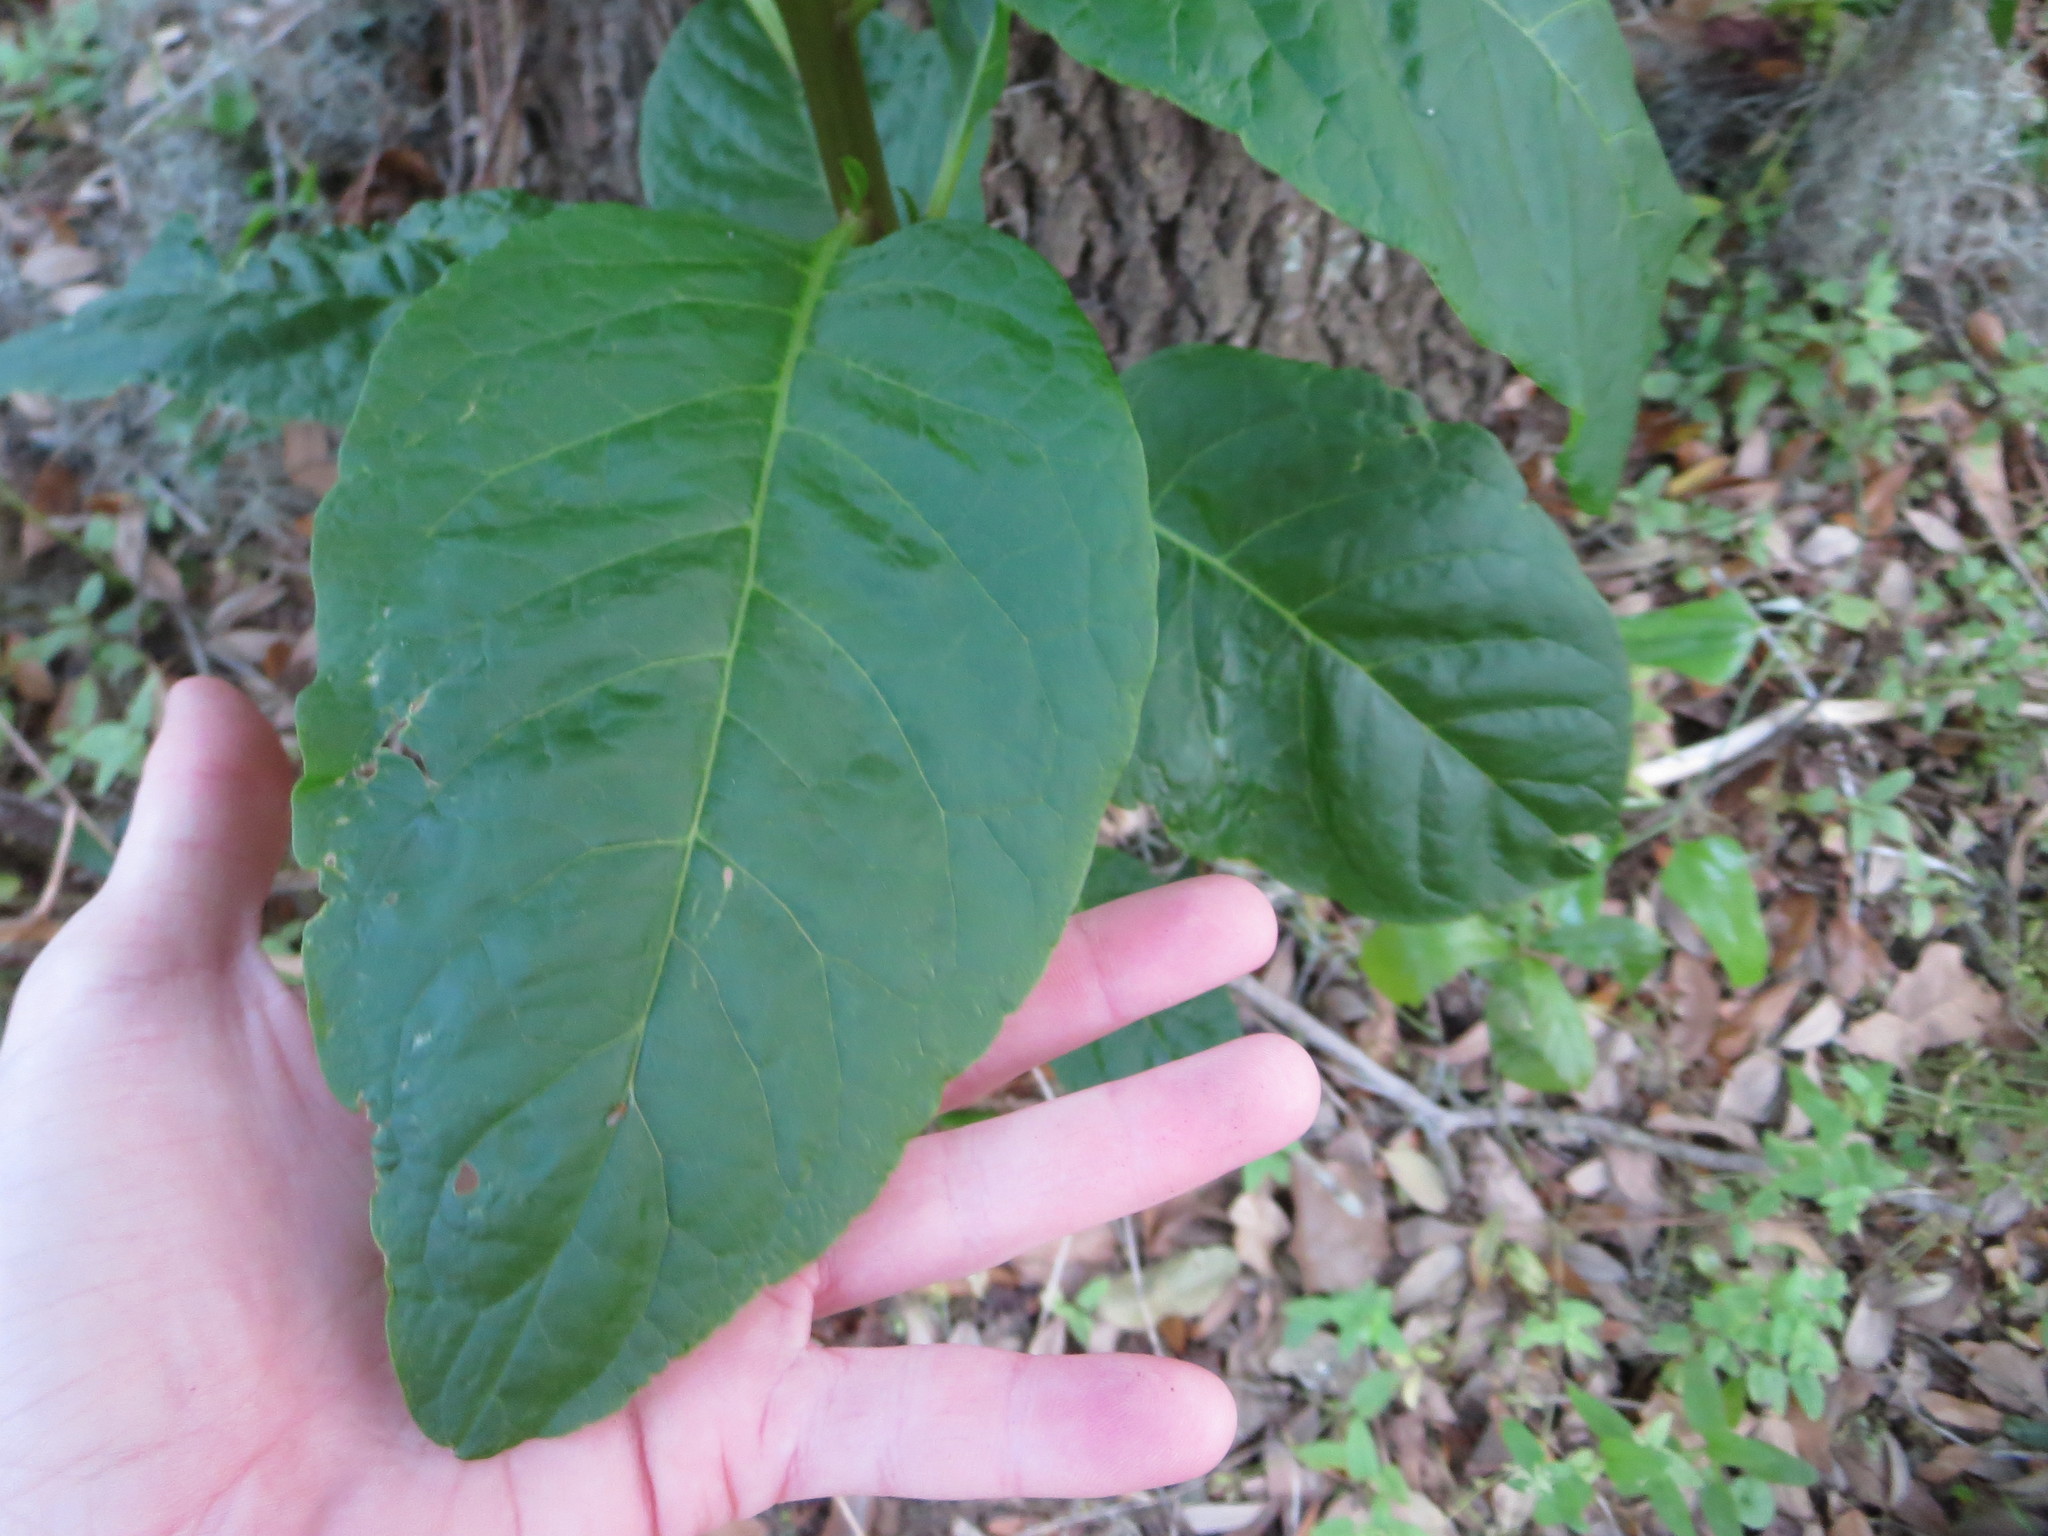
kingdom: Plantae
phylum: Tracheophyta
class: Magnoliopsida
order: Caryophyllales
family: Phytolaccaceae
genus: Phytolacca
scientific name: Phytolacca americana
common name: American pokeweed
